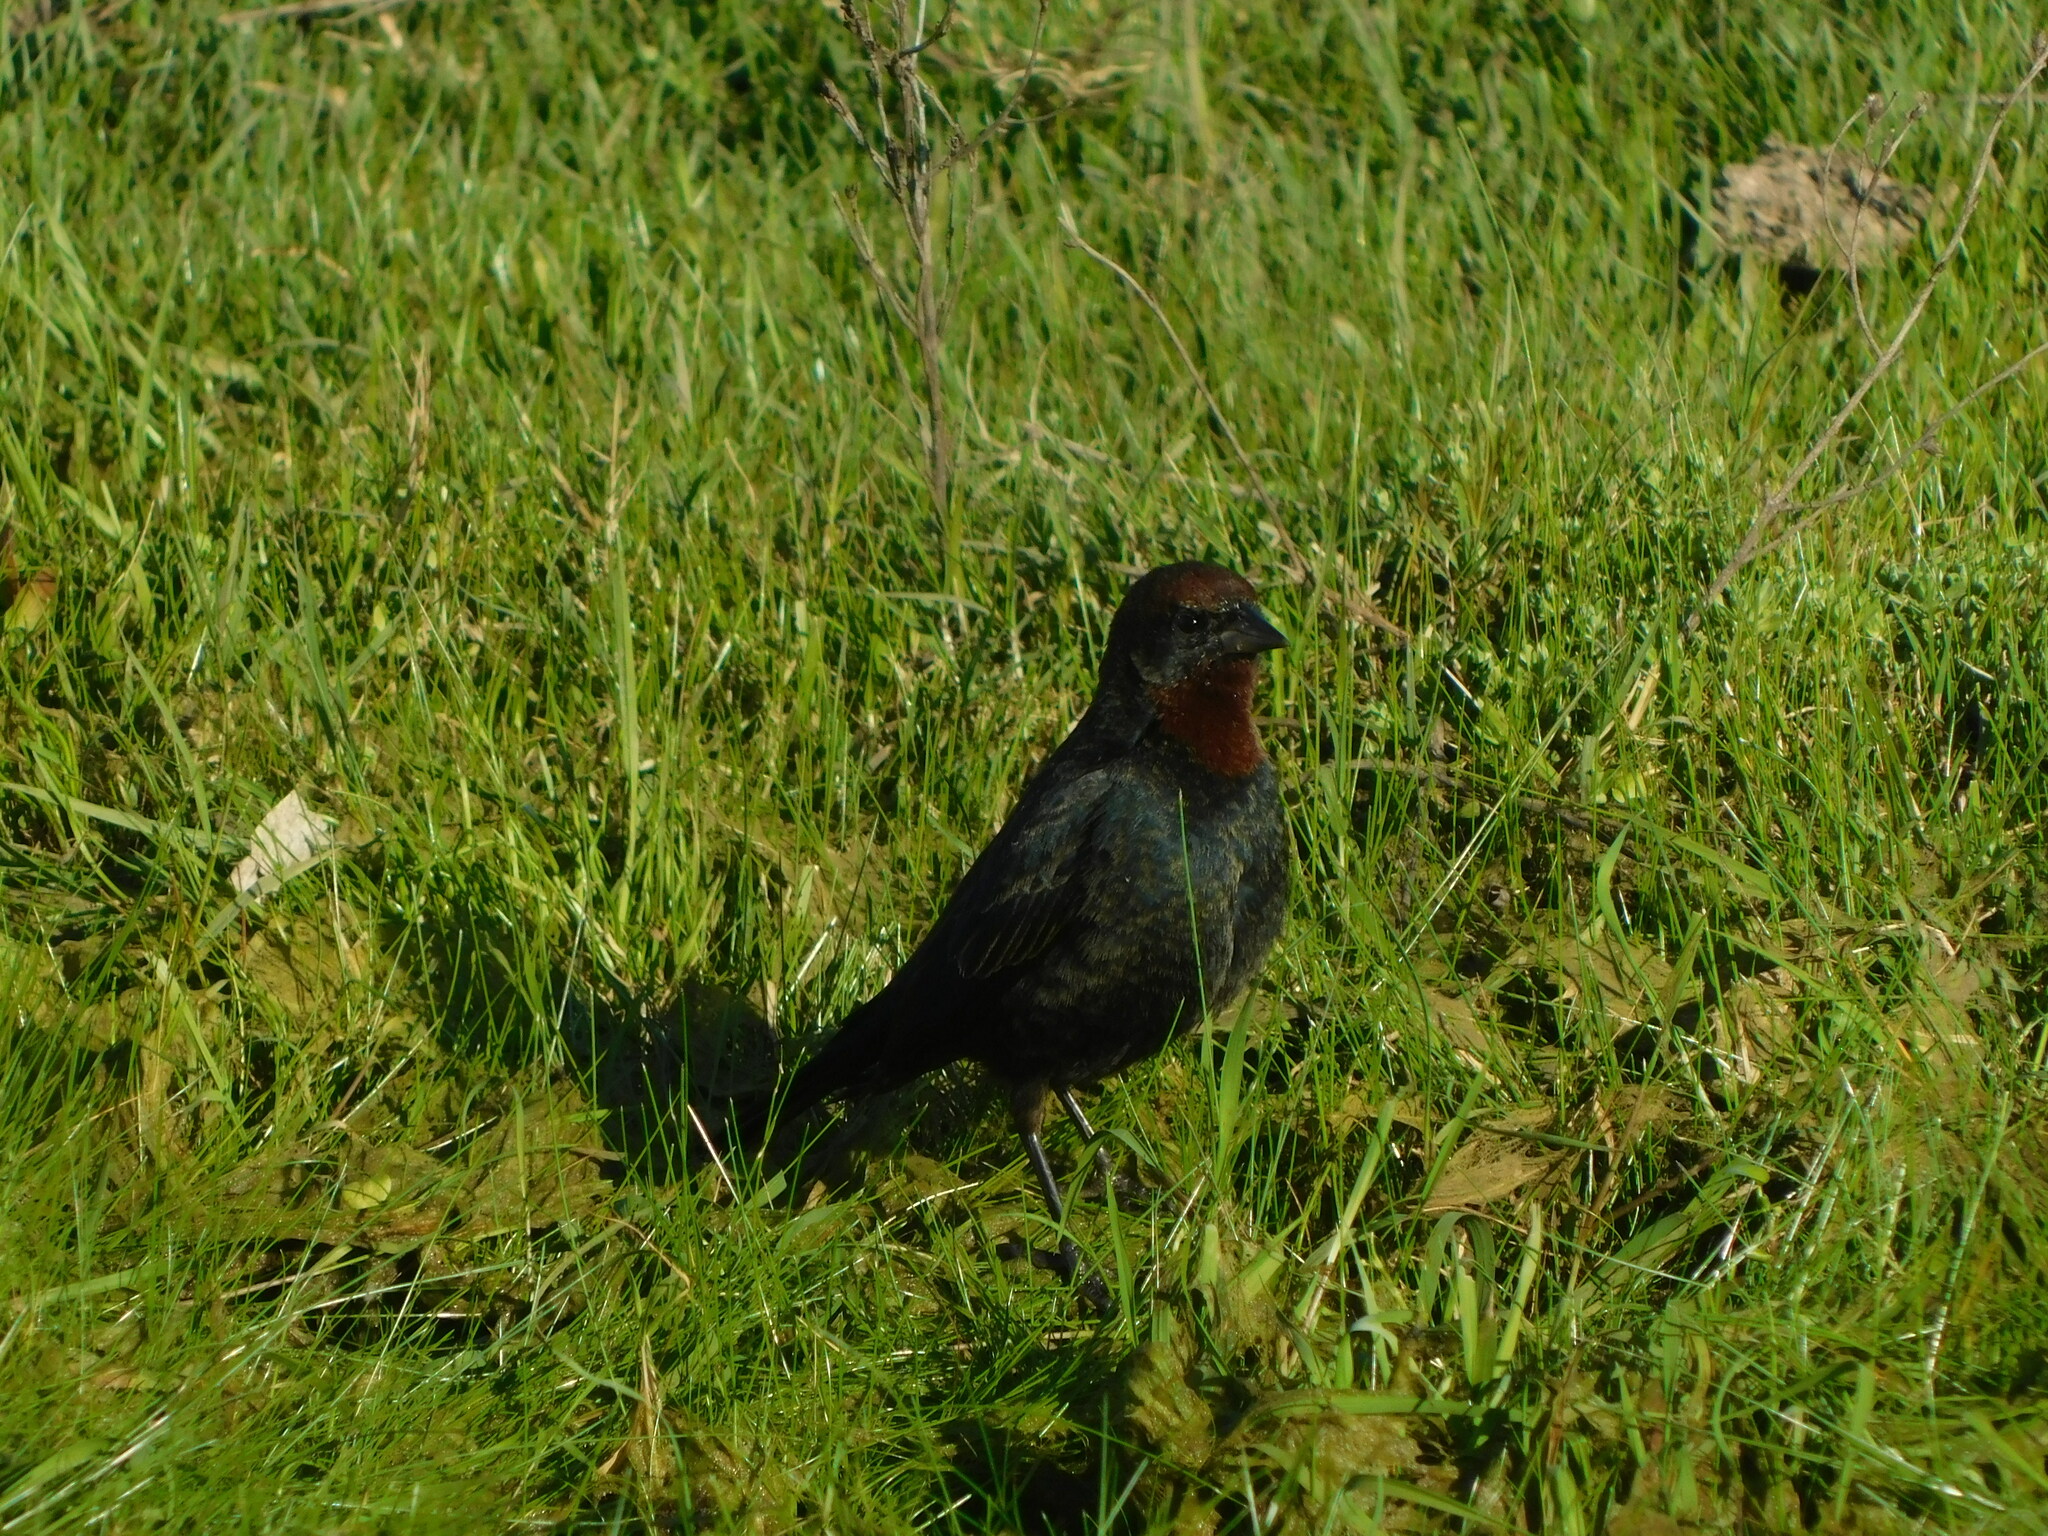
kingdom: Animalia
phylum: Chordata
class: Aves
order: Passeriformes
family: Icteridae
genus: Chrysomus
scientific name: Chrysomus ruficapillus
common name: Chestnut-capped blackbird
